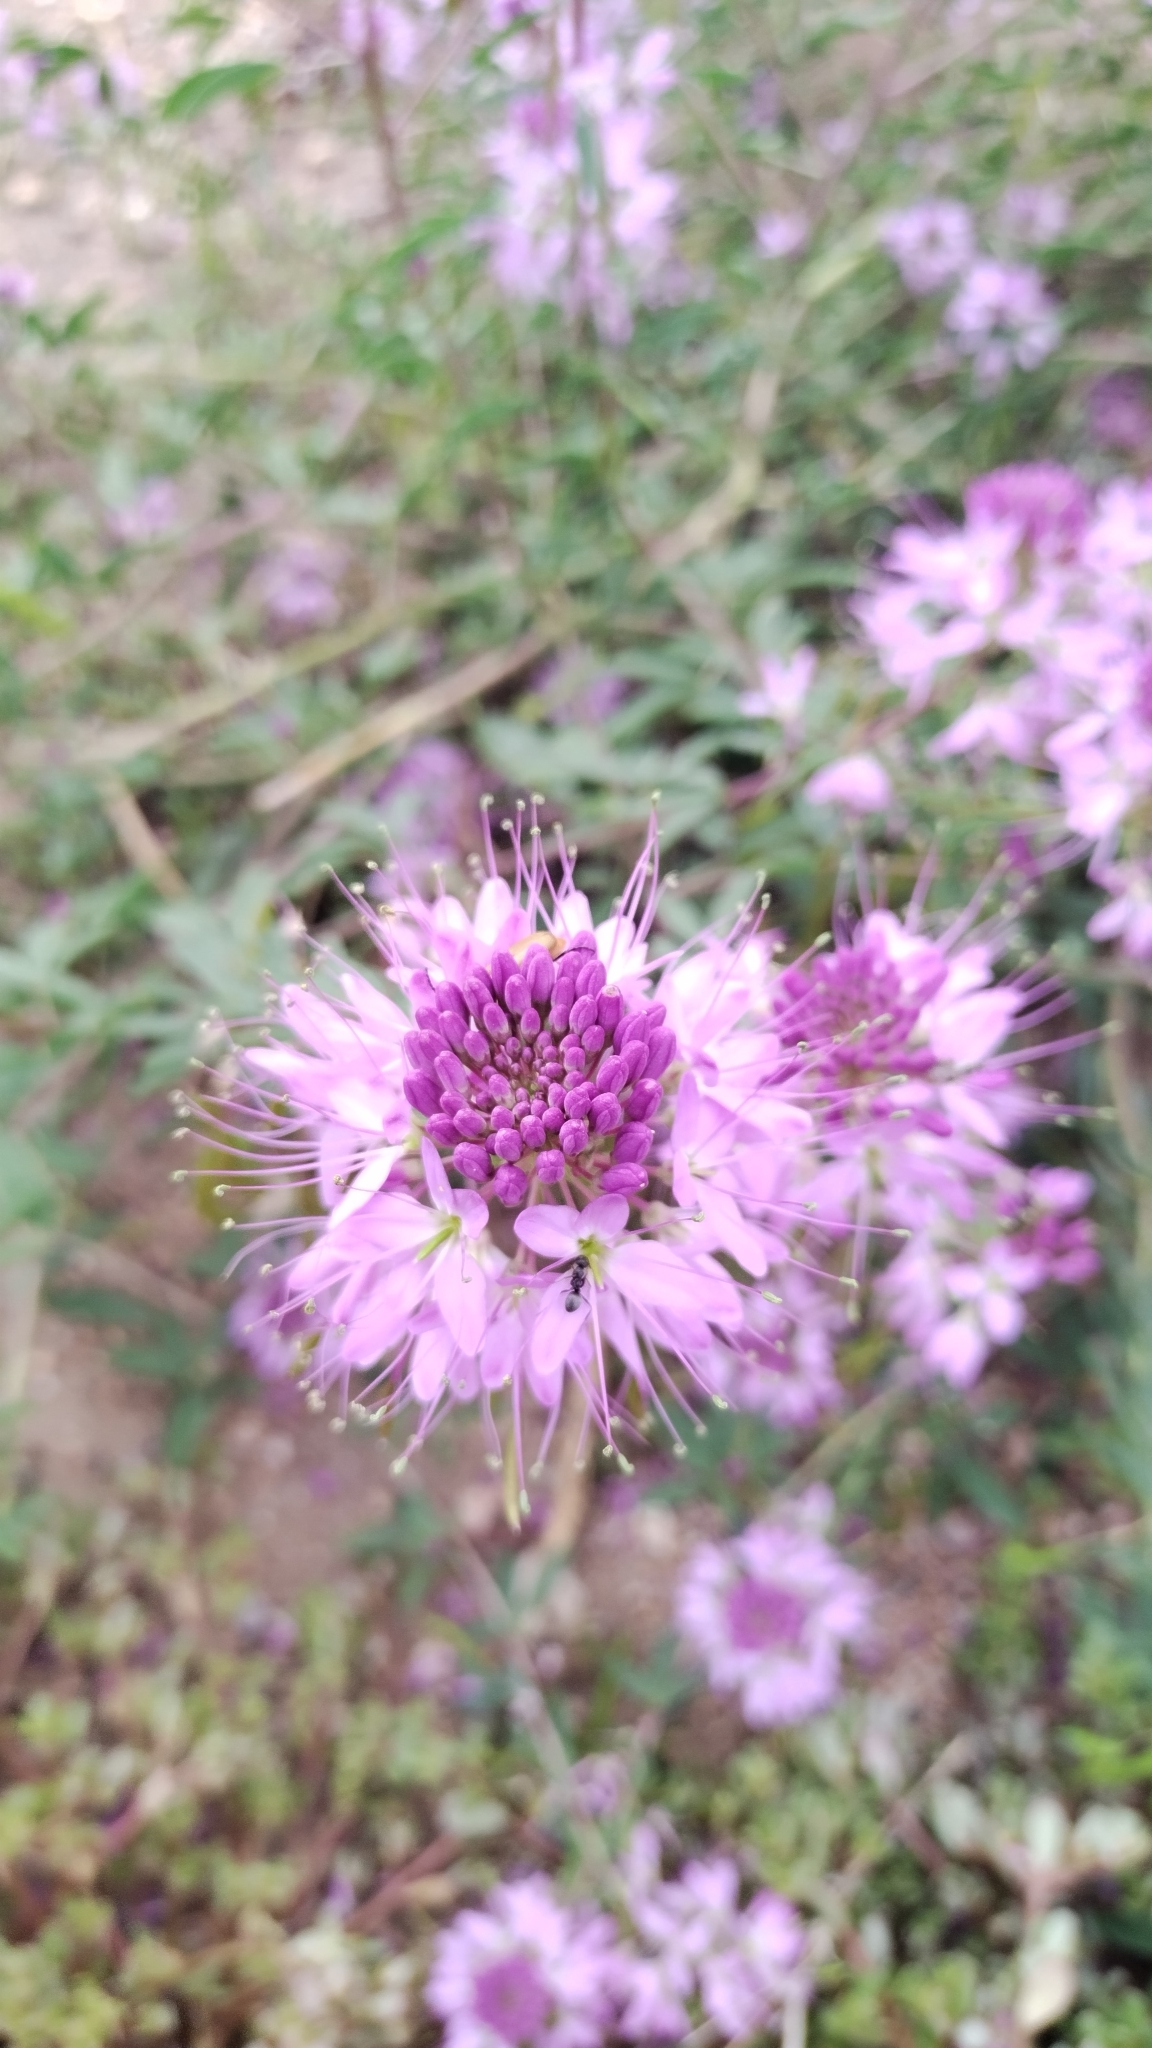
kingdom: Plantae
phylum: Tracheophyta
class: Magnoliopsida
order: Brassicales
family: Cleomaceae
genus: Cleomella
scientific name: Cleomella serrulata
